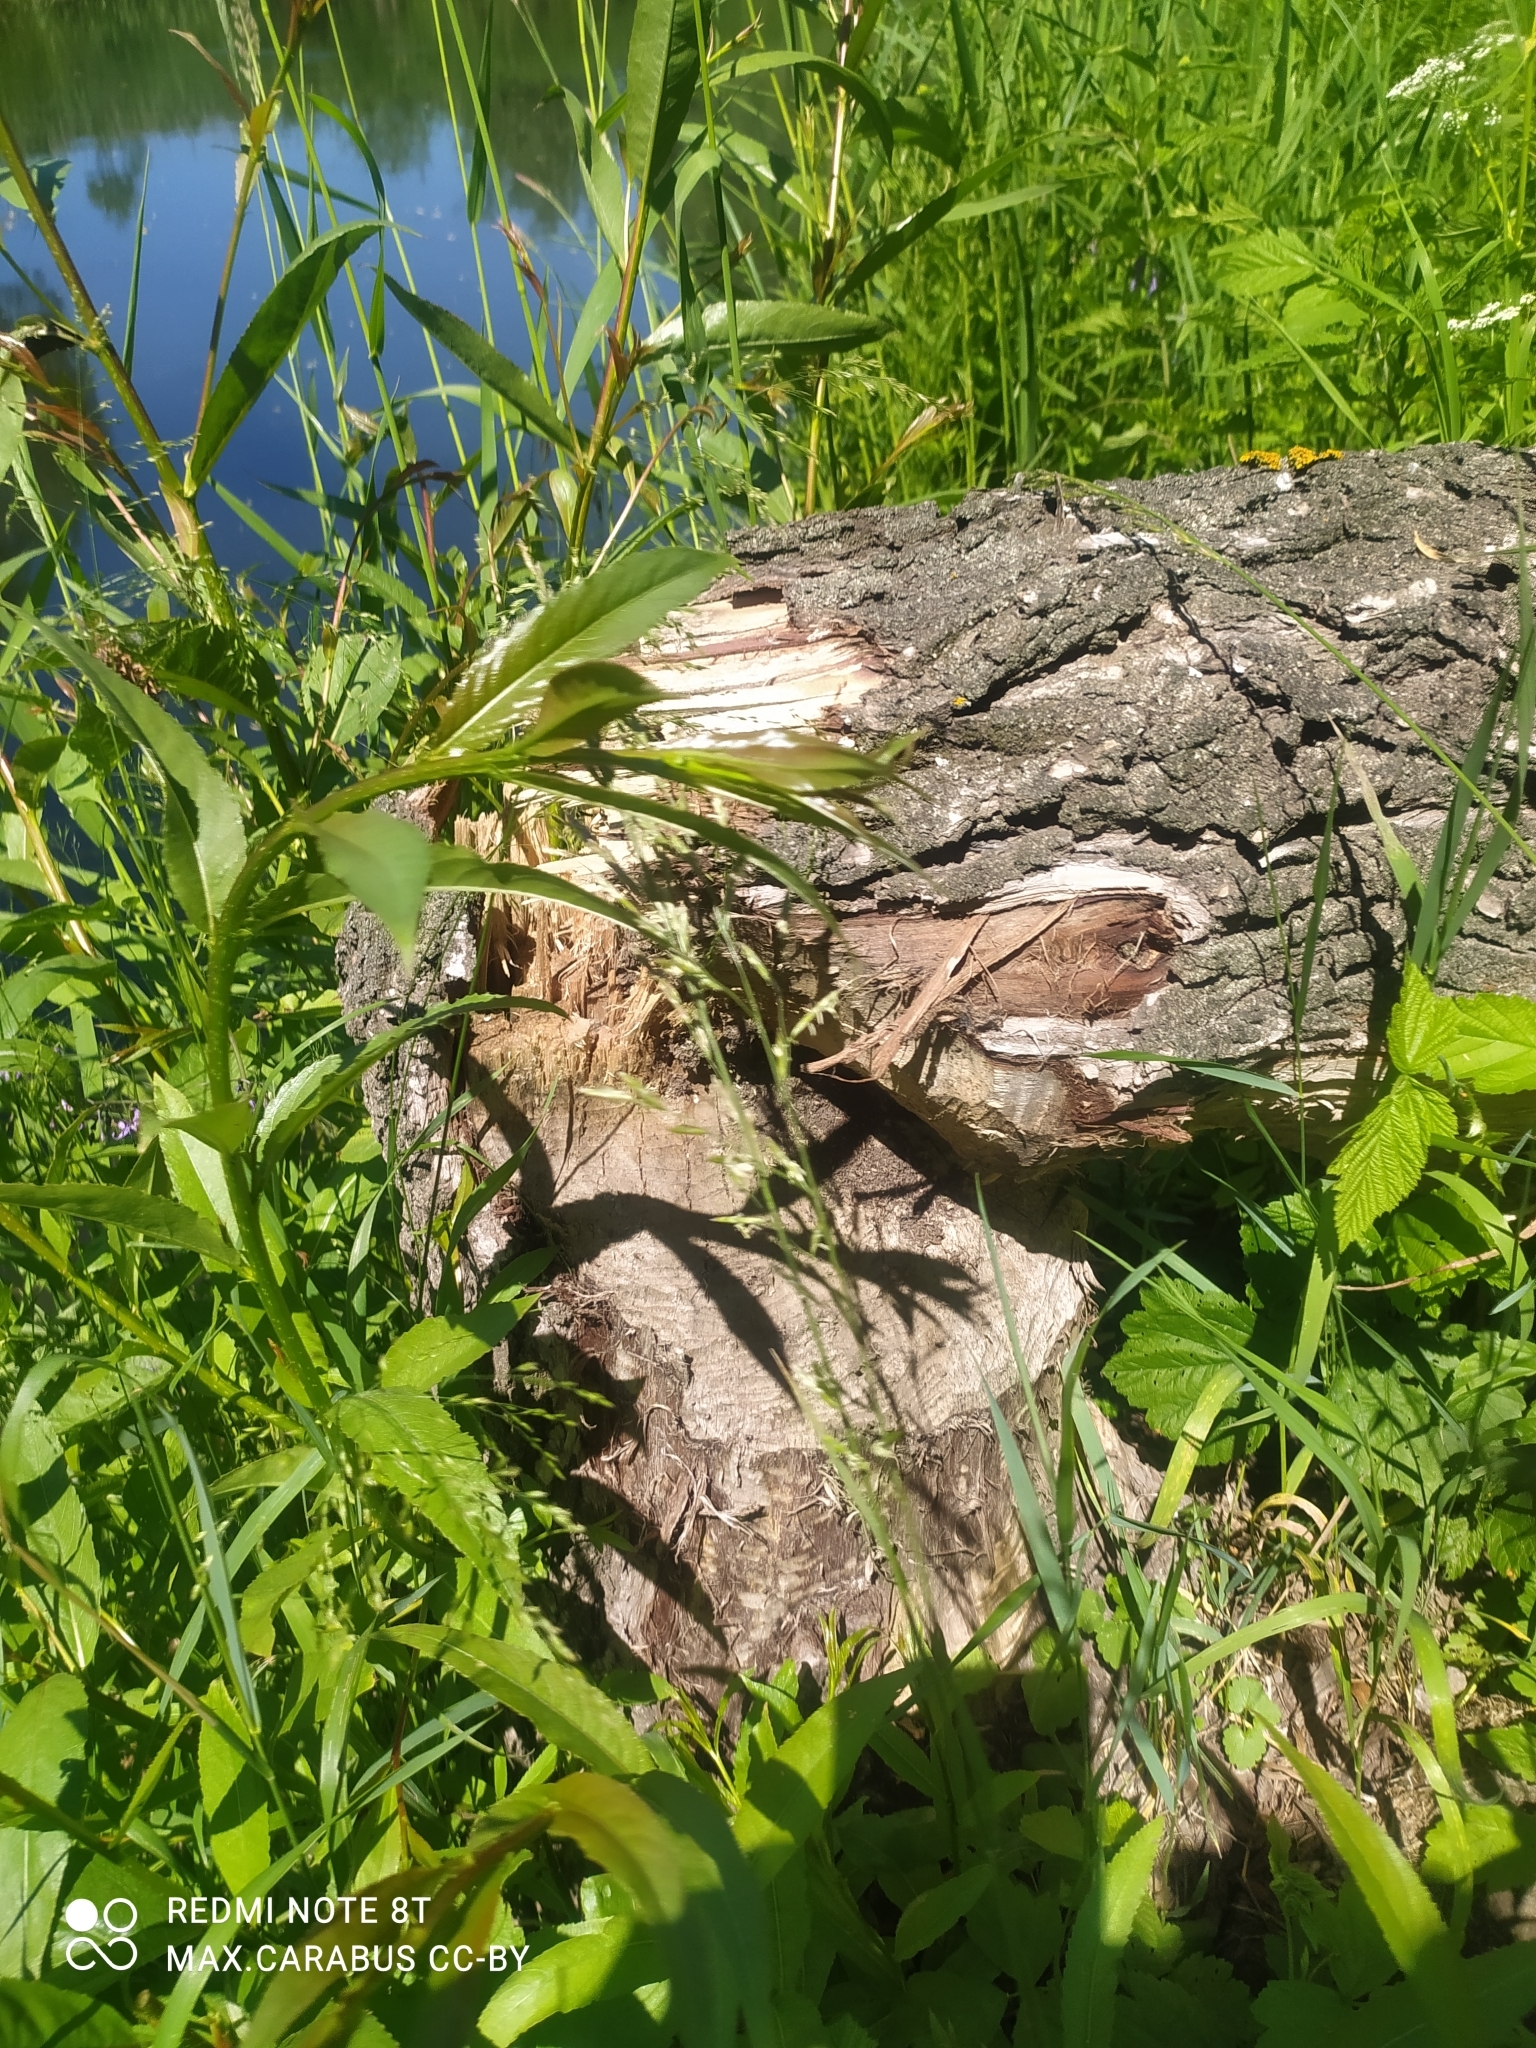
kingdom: Animalia
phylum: Chordata
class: Mammalia
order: Rodentia
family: Castoridae
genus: Castor
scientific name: Castor fiber
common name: Eurasian beaver
